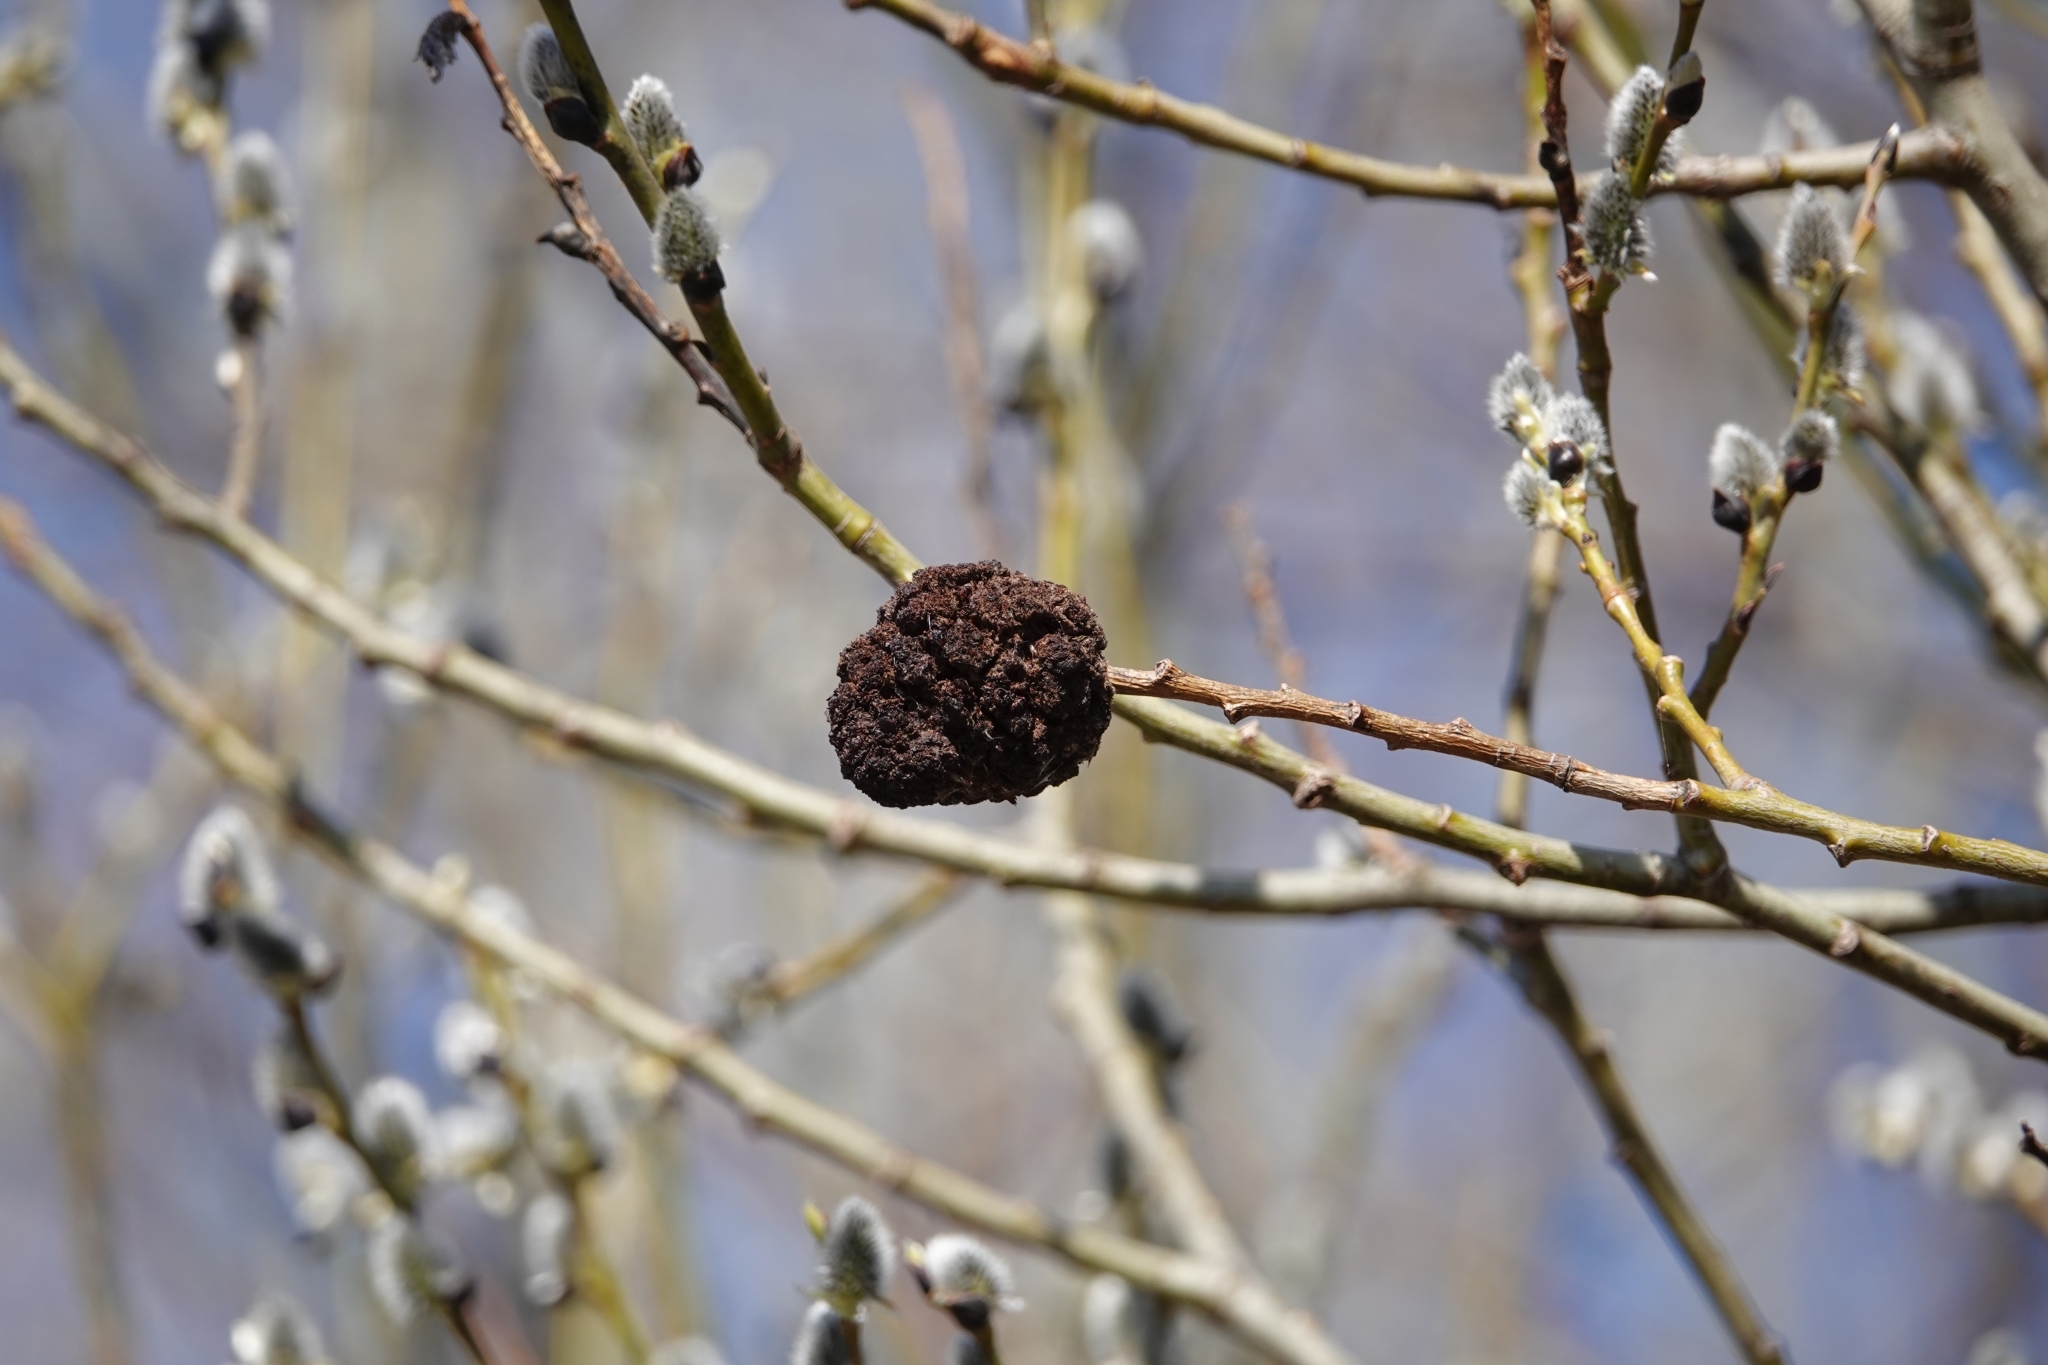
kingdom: Bacteria
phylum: Proteobacteria
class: Alphaproteobacteria
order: Rhizobiales
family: Rhizobiaceae
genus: Rhizobium
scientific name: Rhizobium Agrobacterium radiobacter
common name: Bacterial crown gall
